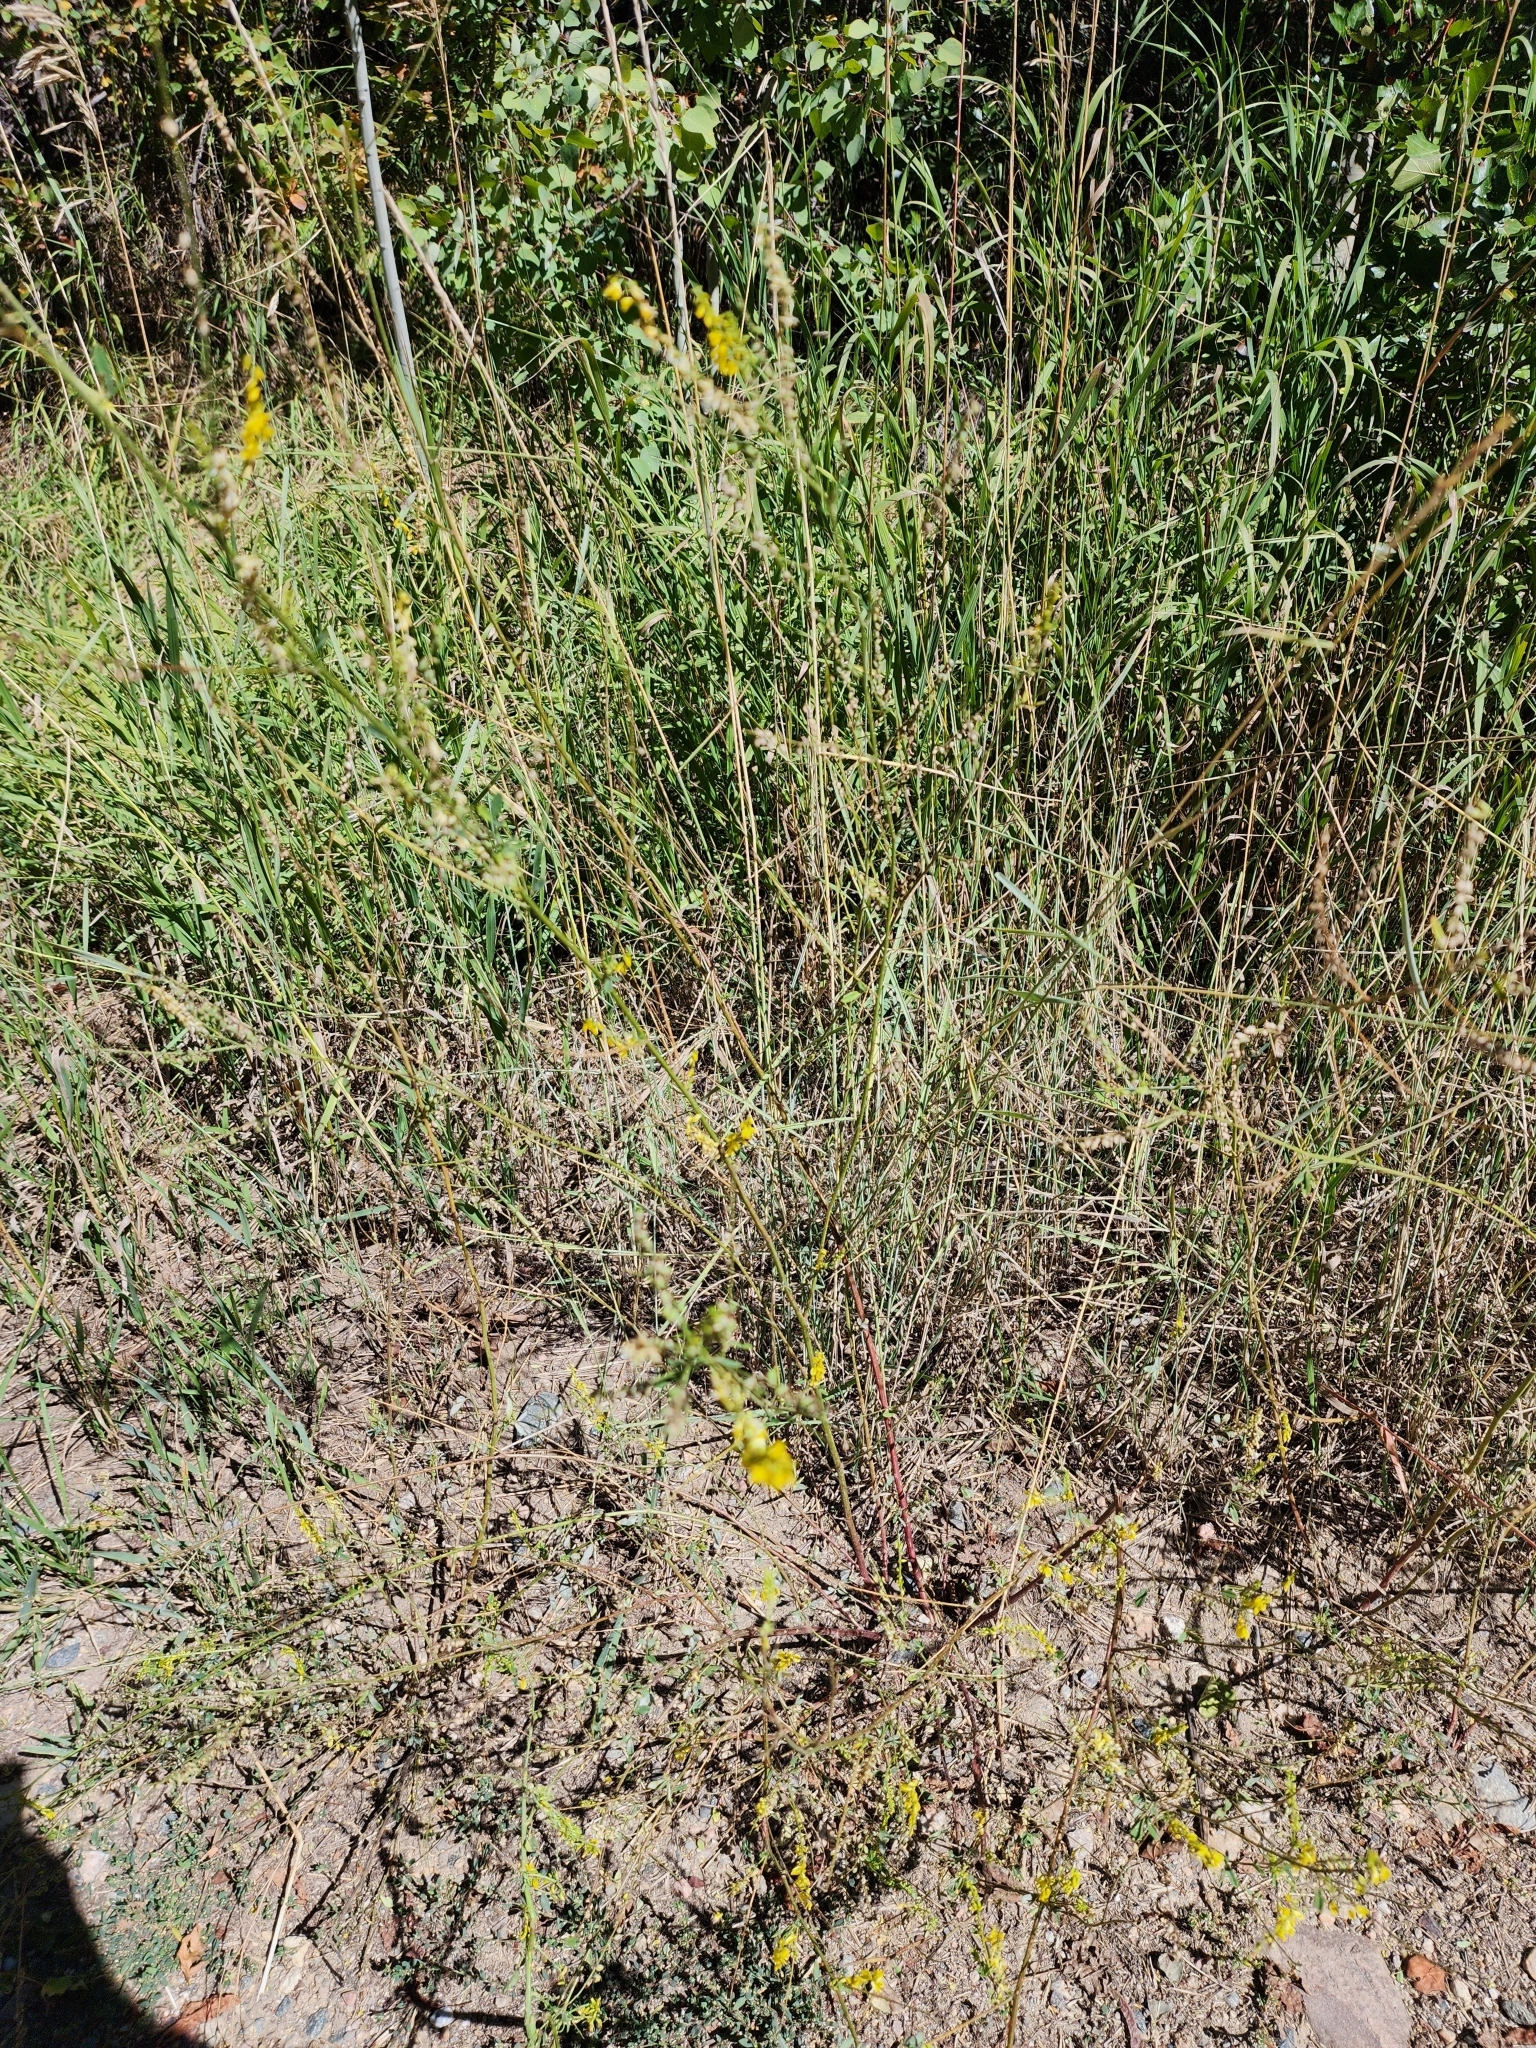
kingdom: Plantae
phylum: Tracheophyta
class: Magnoliopsida
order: Fabales
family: Fabaceae
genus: Melilotus
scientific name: Melilotus officinalis
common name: Sweetclover
